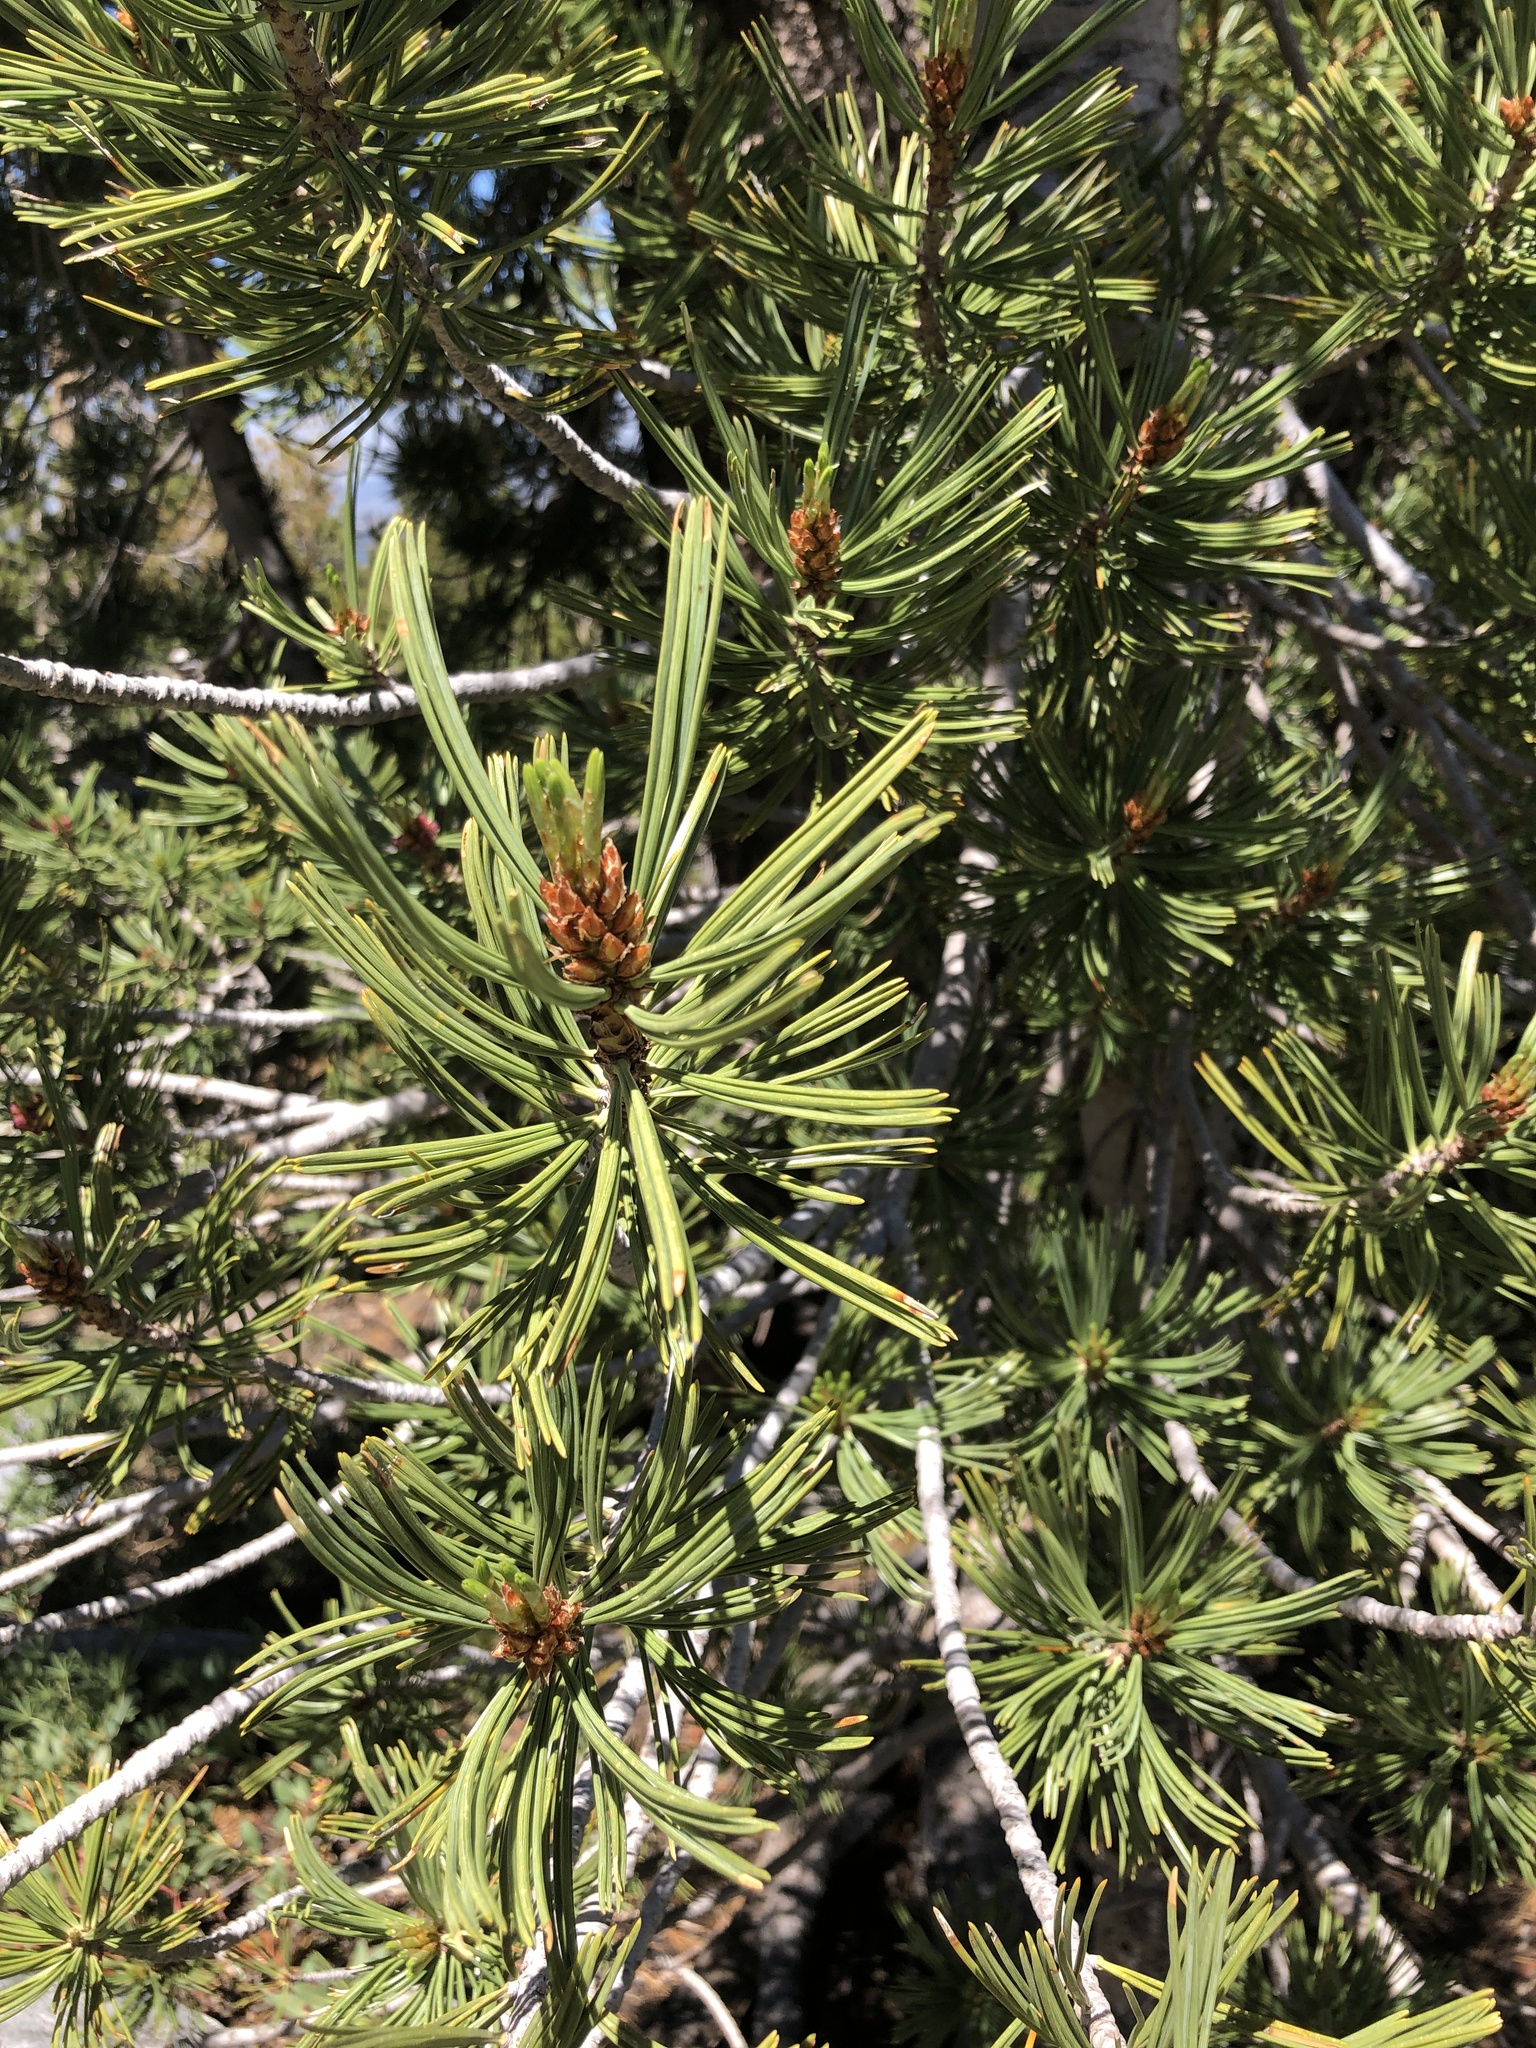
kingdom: Plantae
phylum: Tracheophyta
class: Pinopsida
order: Pinales
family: Pinaceae
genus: Pinus
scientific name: Pinus albicaulis
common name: Whitebark pine
